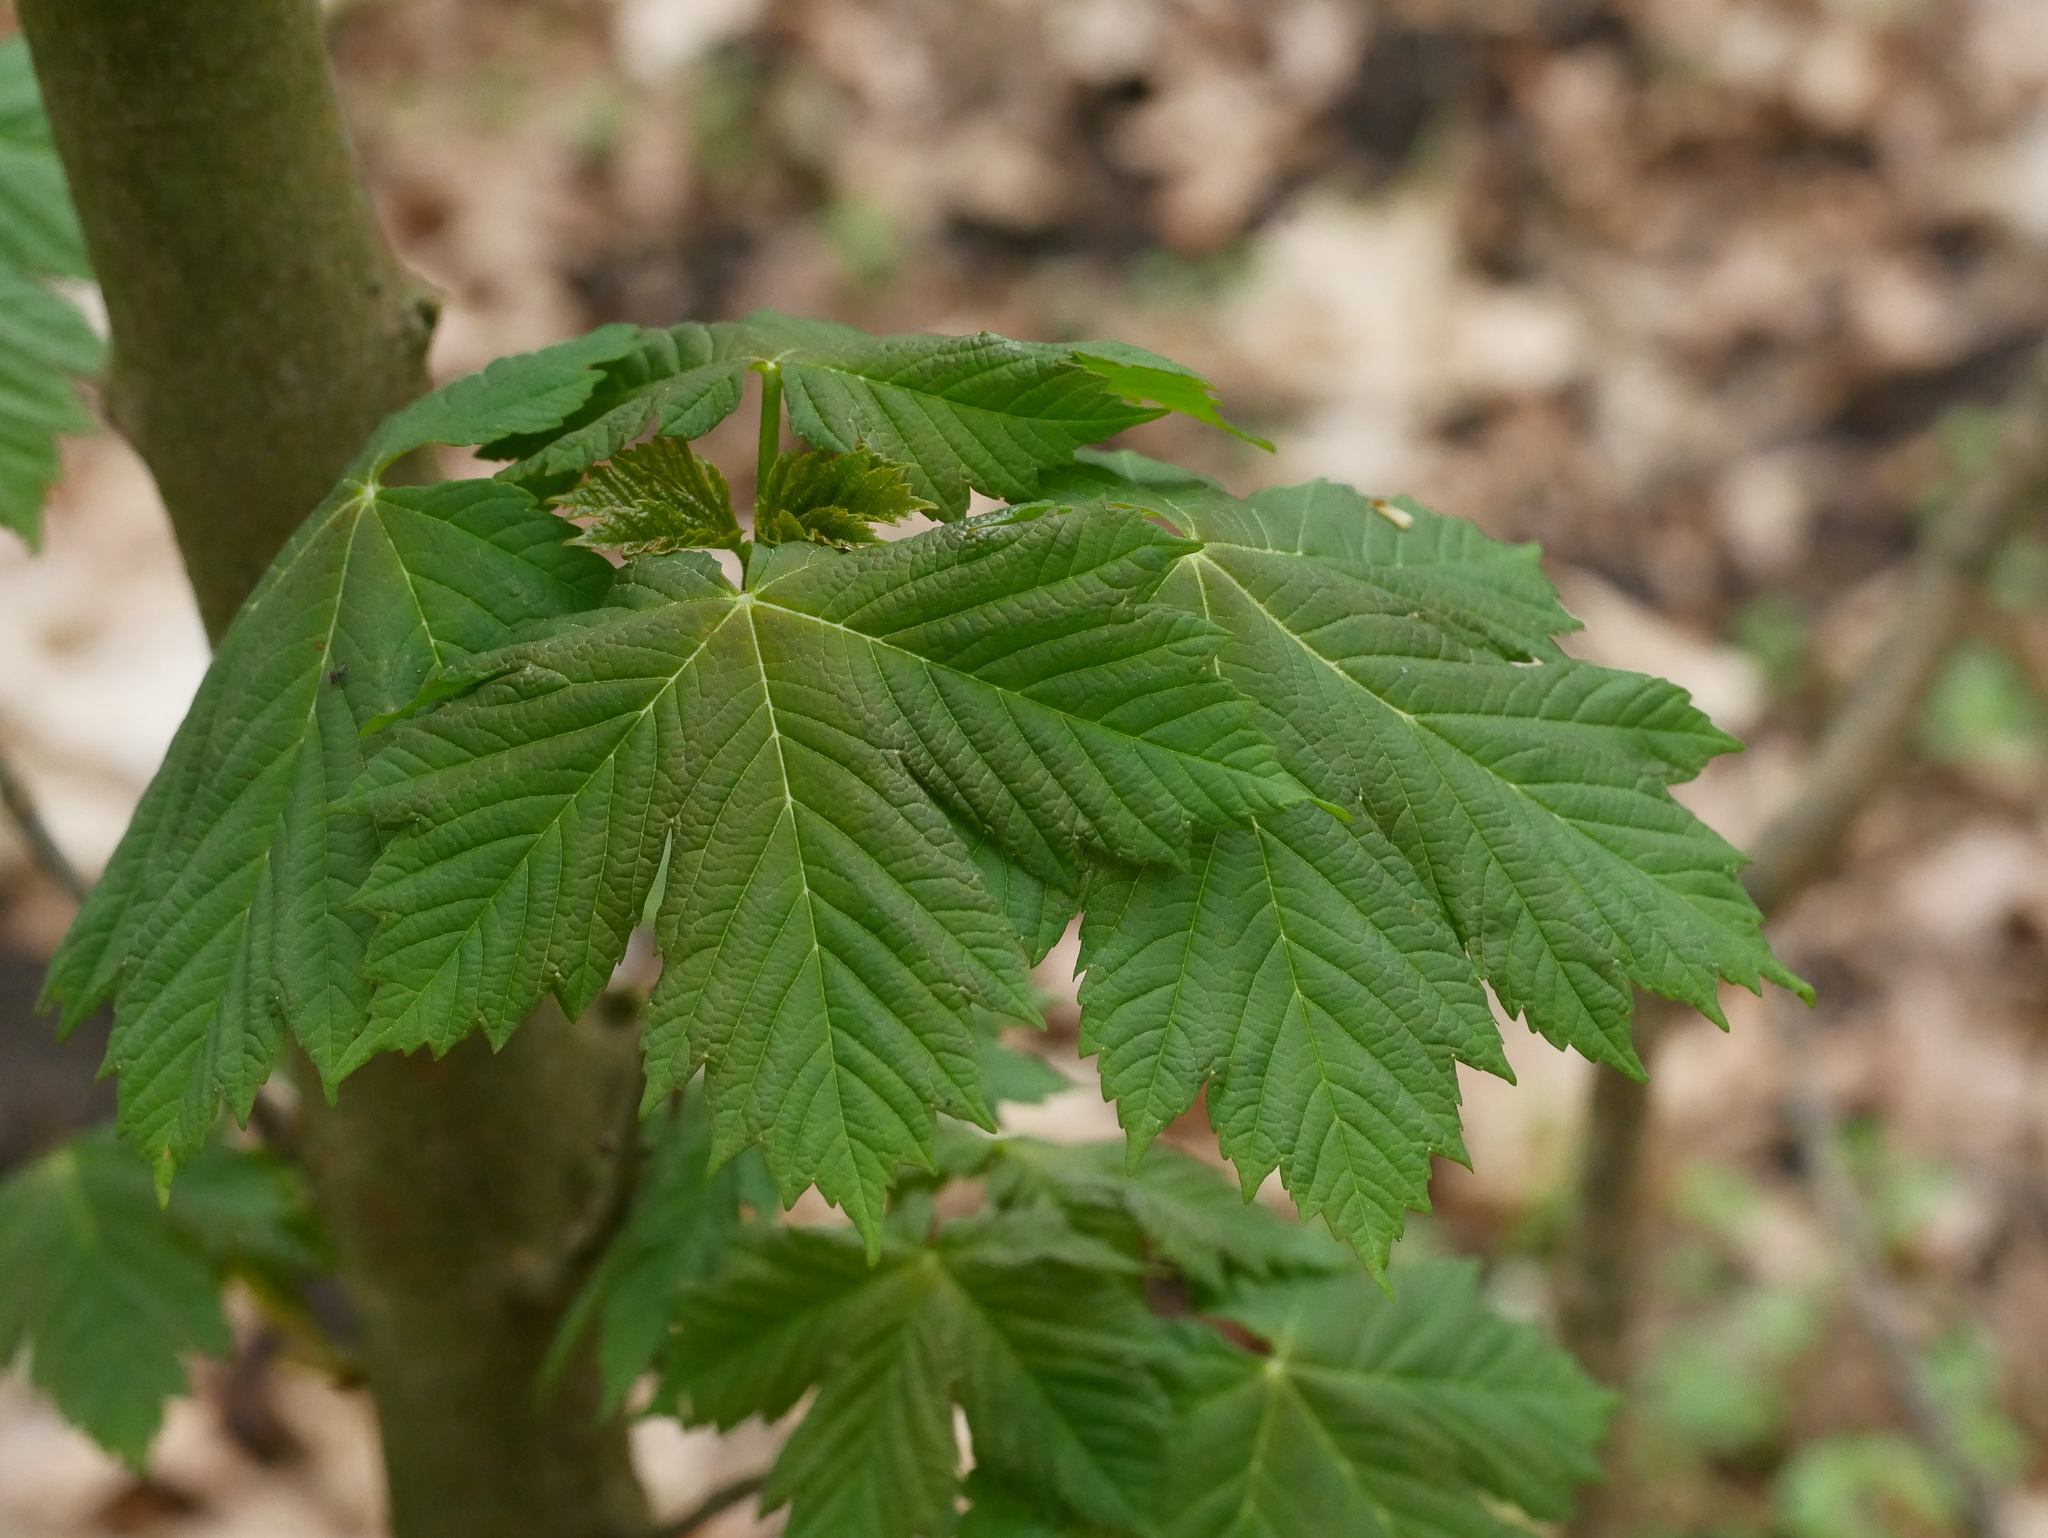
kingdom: Plantae
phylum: Tracheophyta
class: Magnoliopsida
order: Sapindales
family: Sapindaceae
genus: Acer
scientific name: Acer pseudoplatanus
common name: Sycamore
